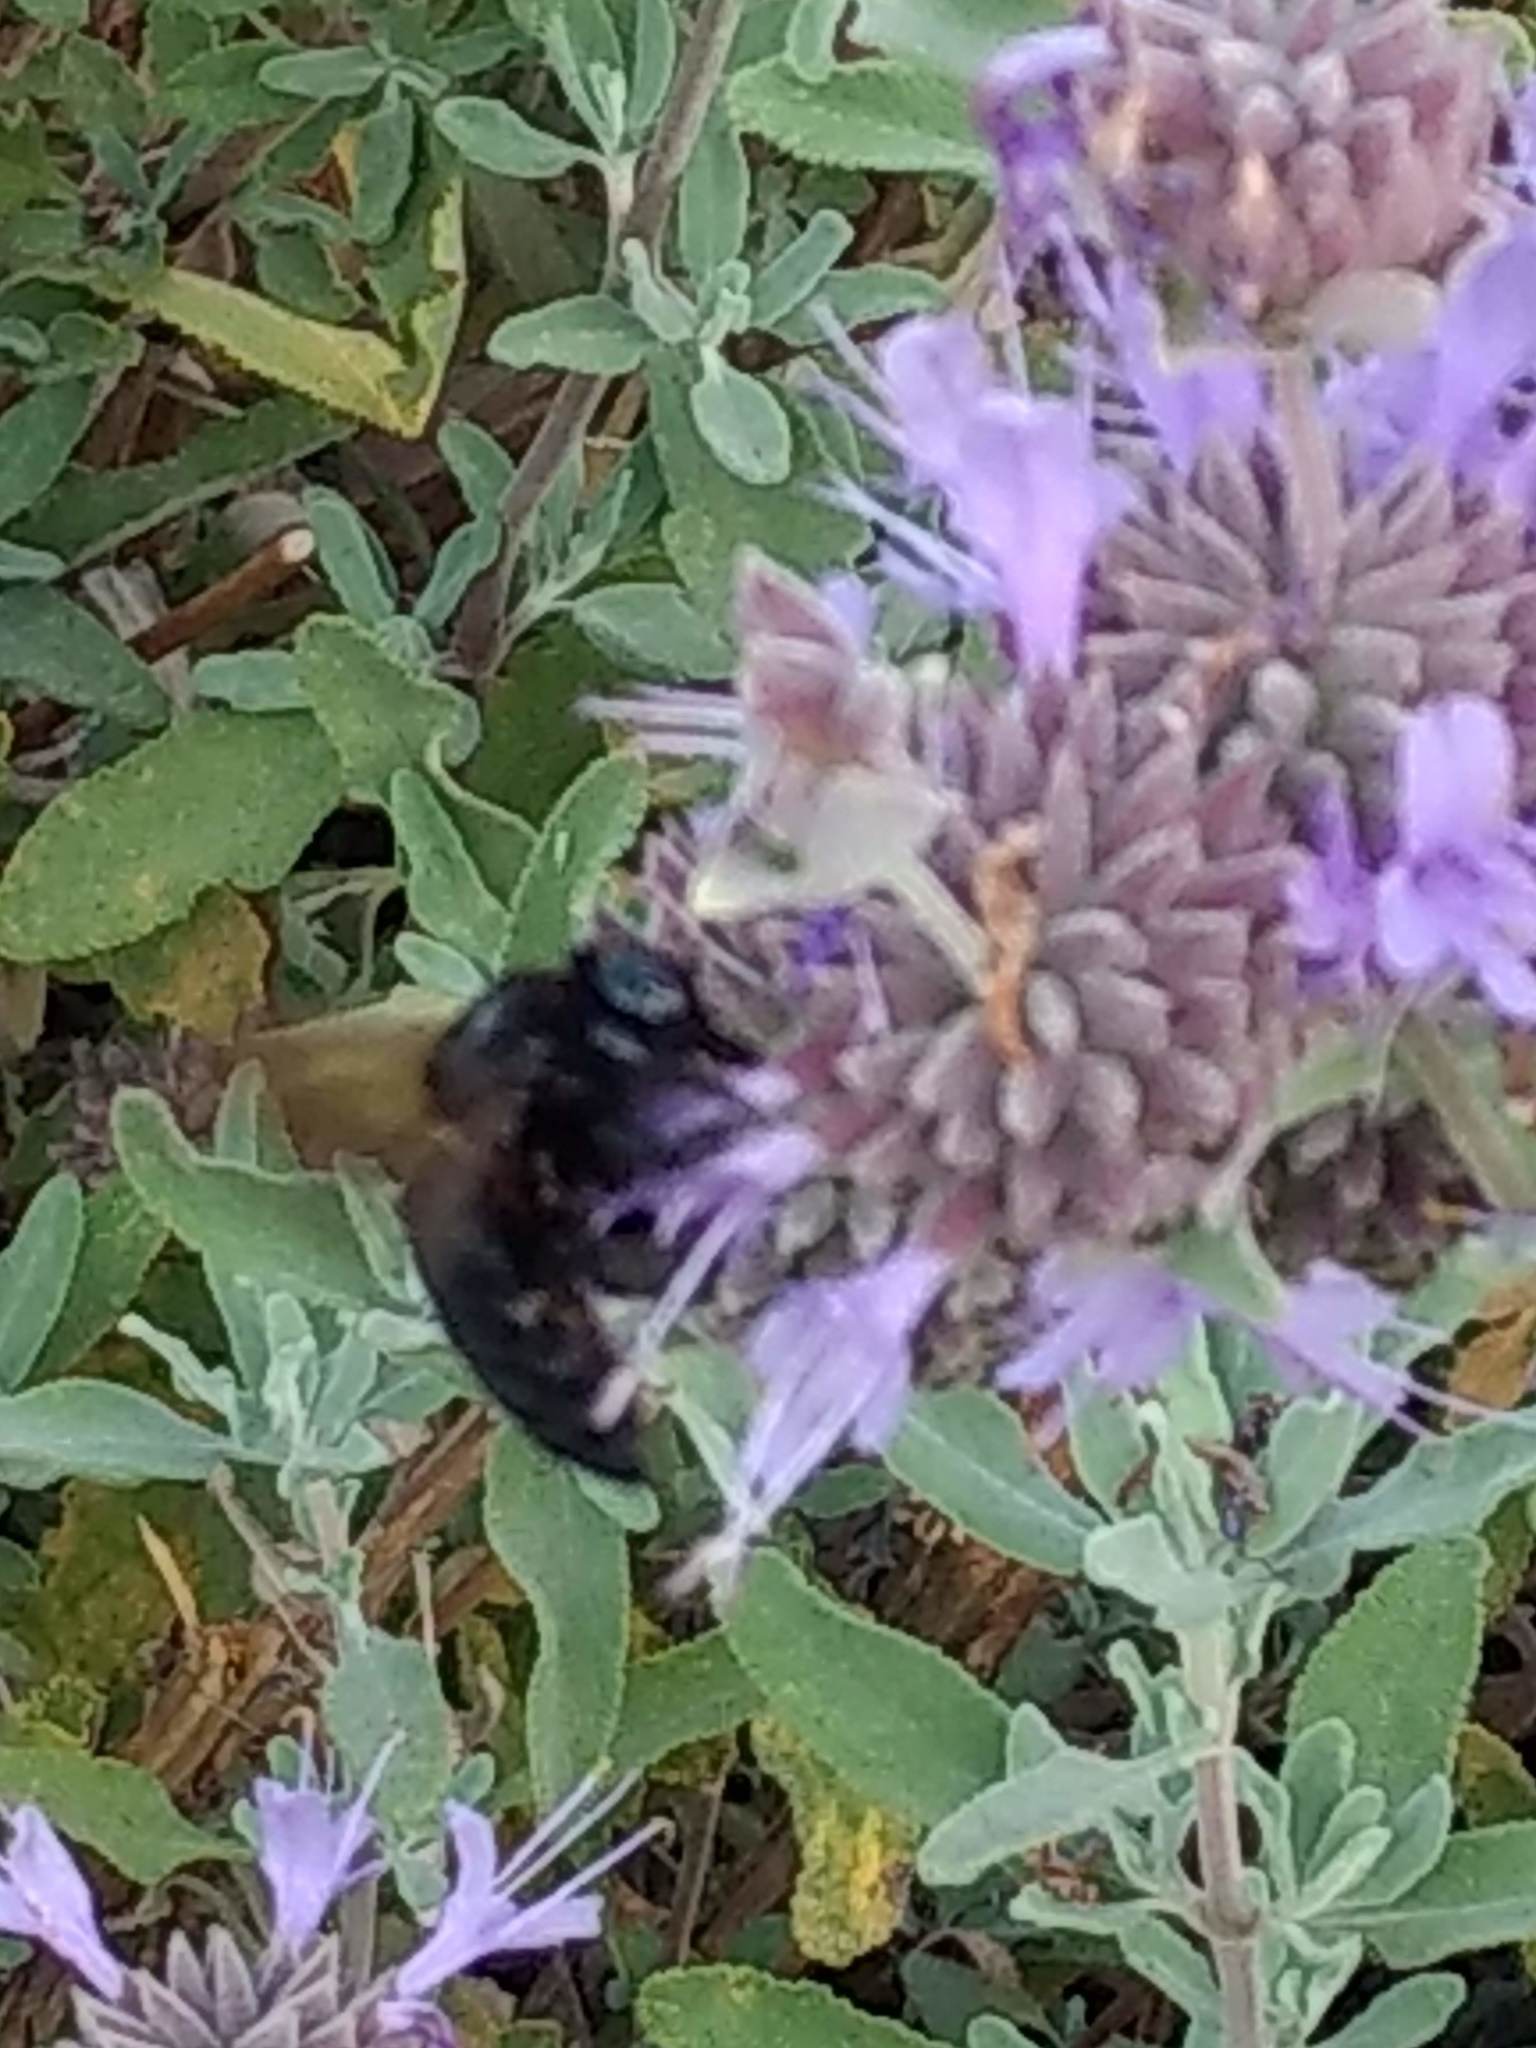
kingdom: Animalia
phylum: Arthropoda
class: Insecta
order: Hymenoptera
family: Apidae
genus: Xylocopa
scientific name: Xylocopa sonorina
